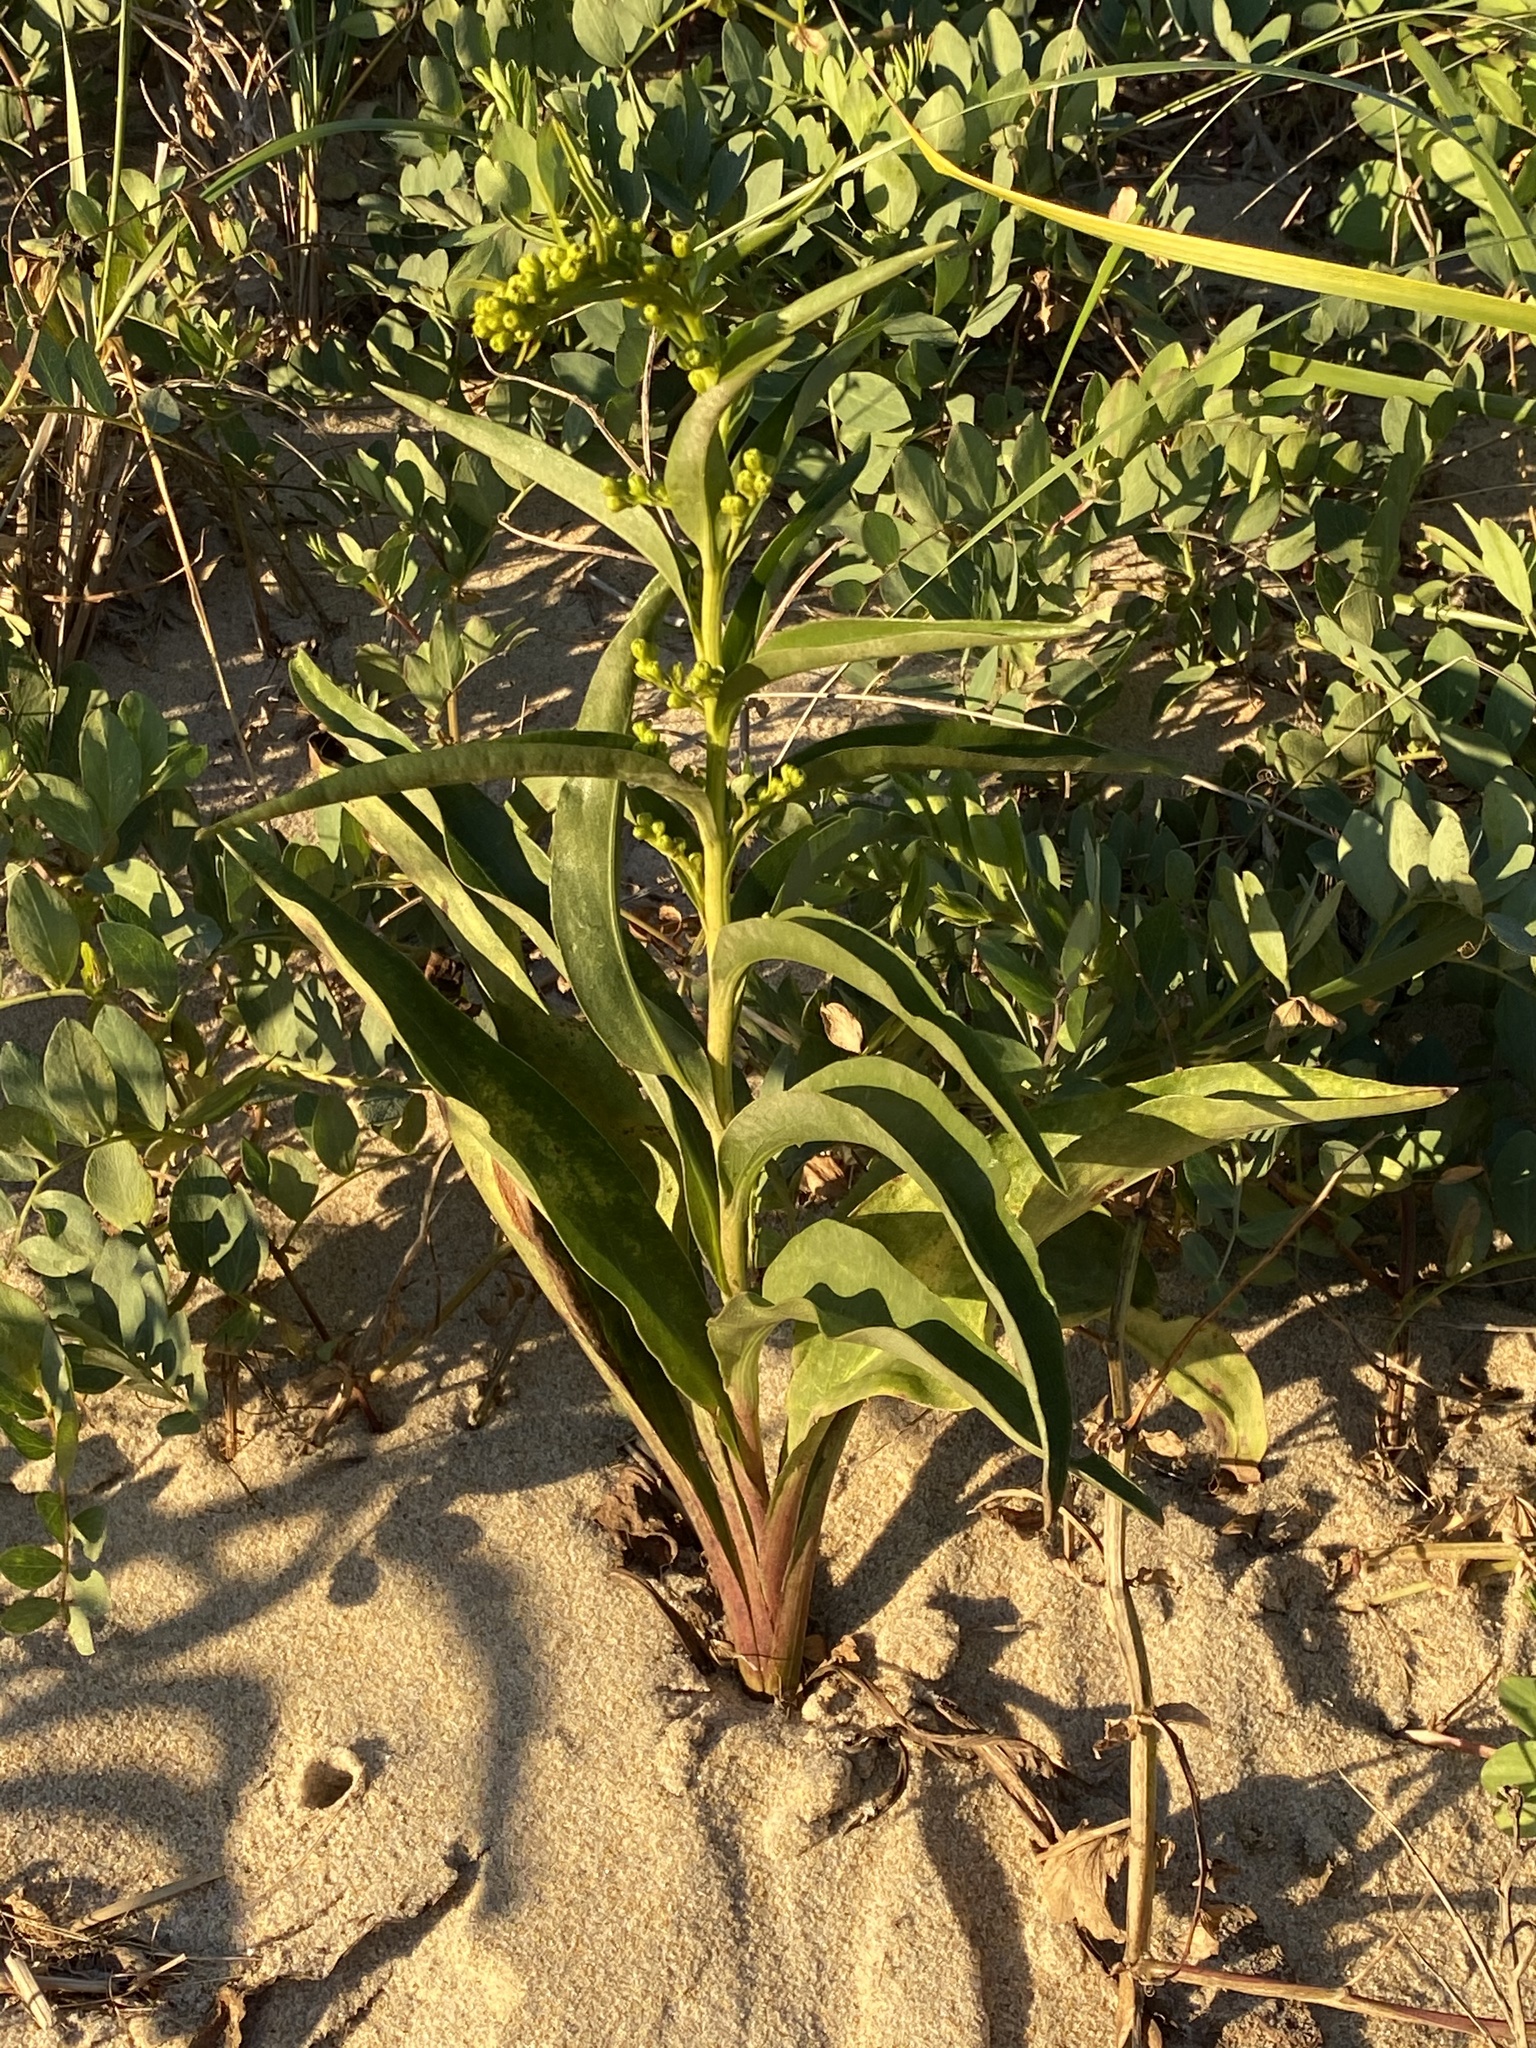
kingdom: Plantae
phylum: Tracheophyta
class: Magnoliopsida
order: Asterales
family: Asteraceae
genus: Solidago
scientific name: Solidago sempervirens
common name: Salt-marsh goldenrod
